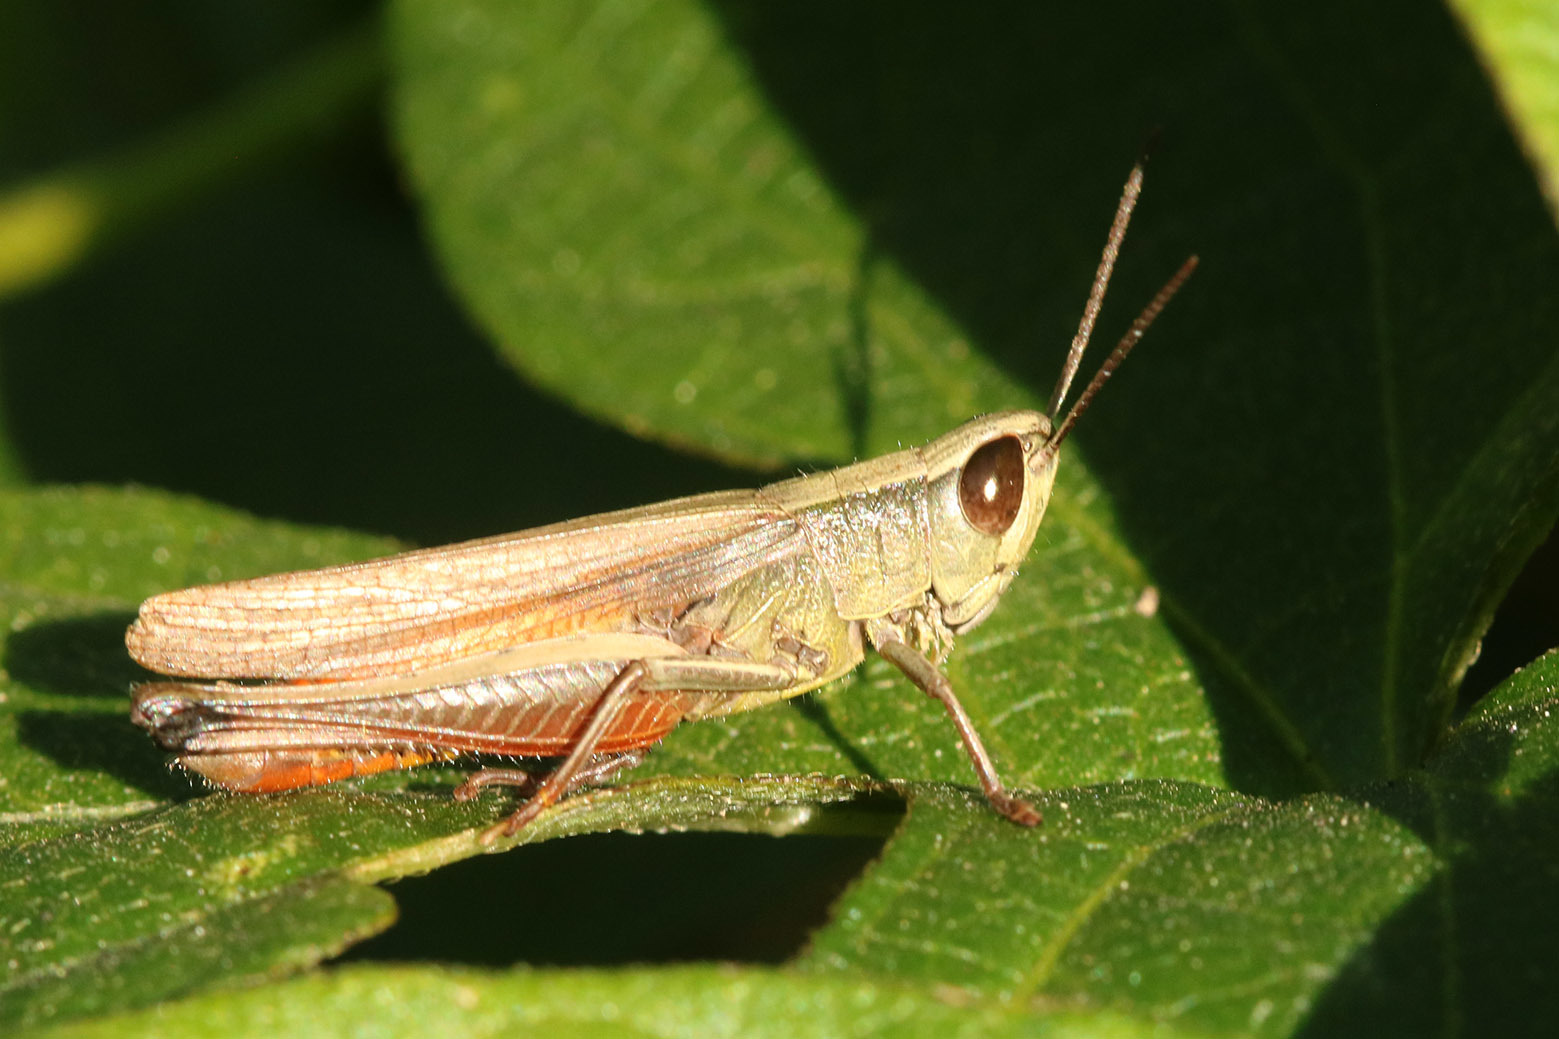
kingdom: Animalia
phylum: Arthropoda
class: Insecta
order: Orthoptera
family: Acrididae
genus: Amblytropidia
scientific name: Amblytropidia australis
